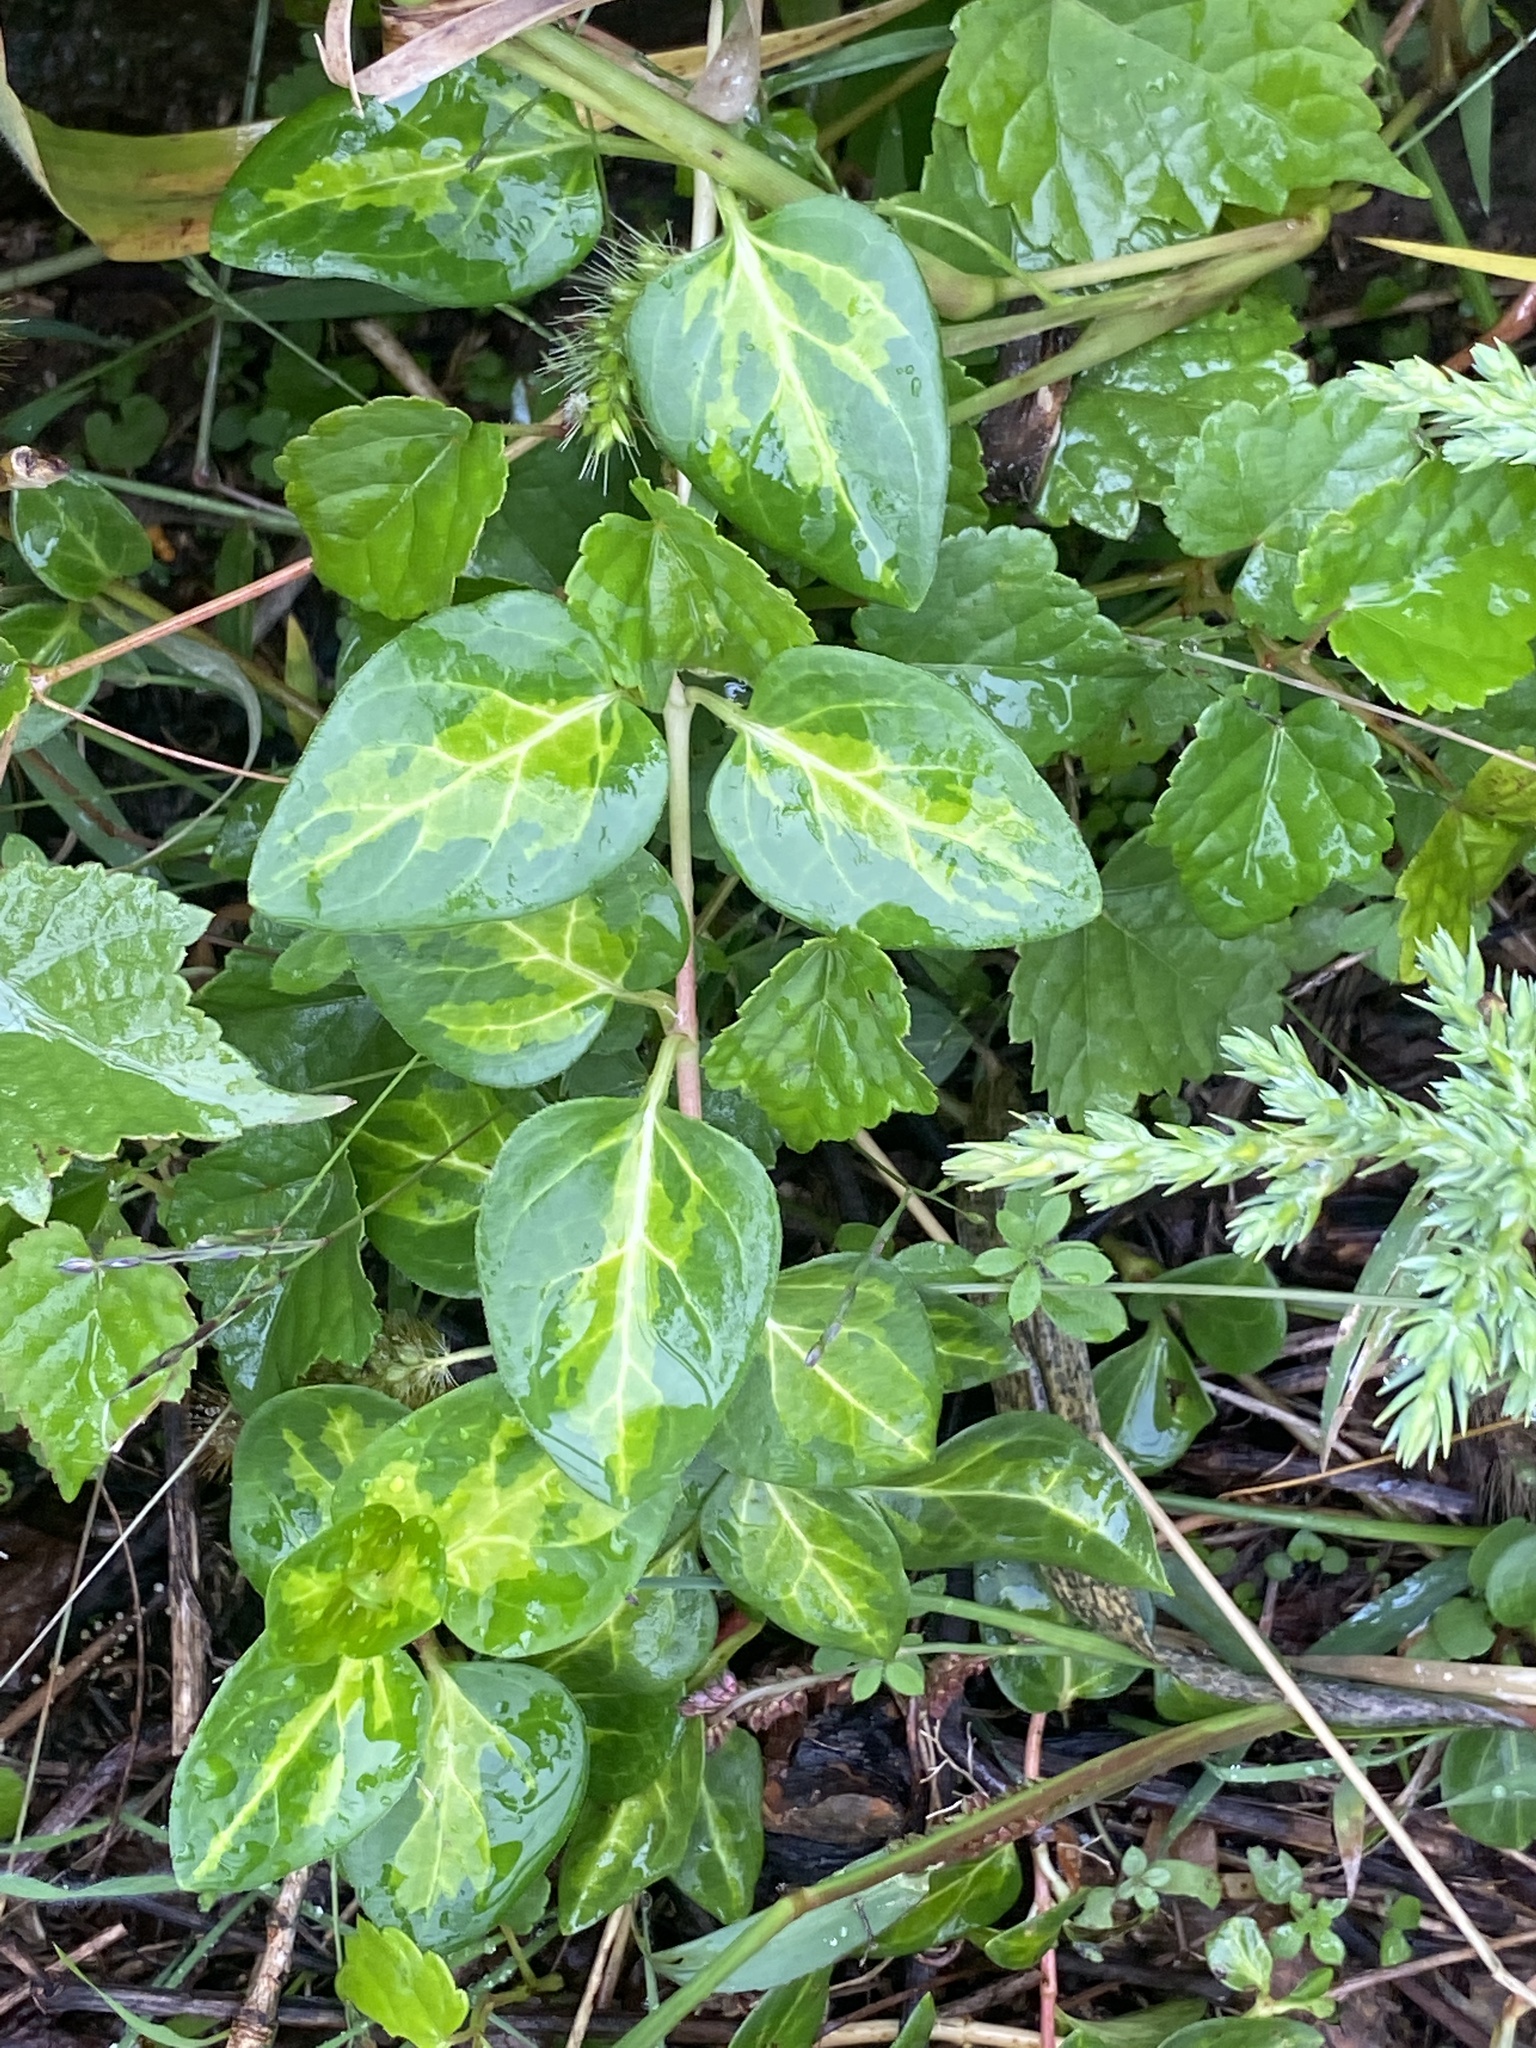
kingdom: Plantae
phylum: Tracheophyta
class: Magnoliopsida
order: Gentianales
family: Apocynaceae
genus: Vinca
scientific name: Vinca major
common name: Greater periwinkle
